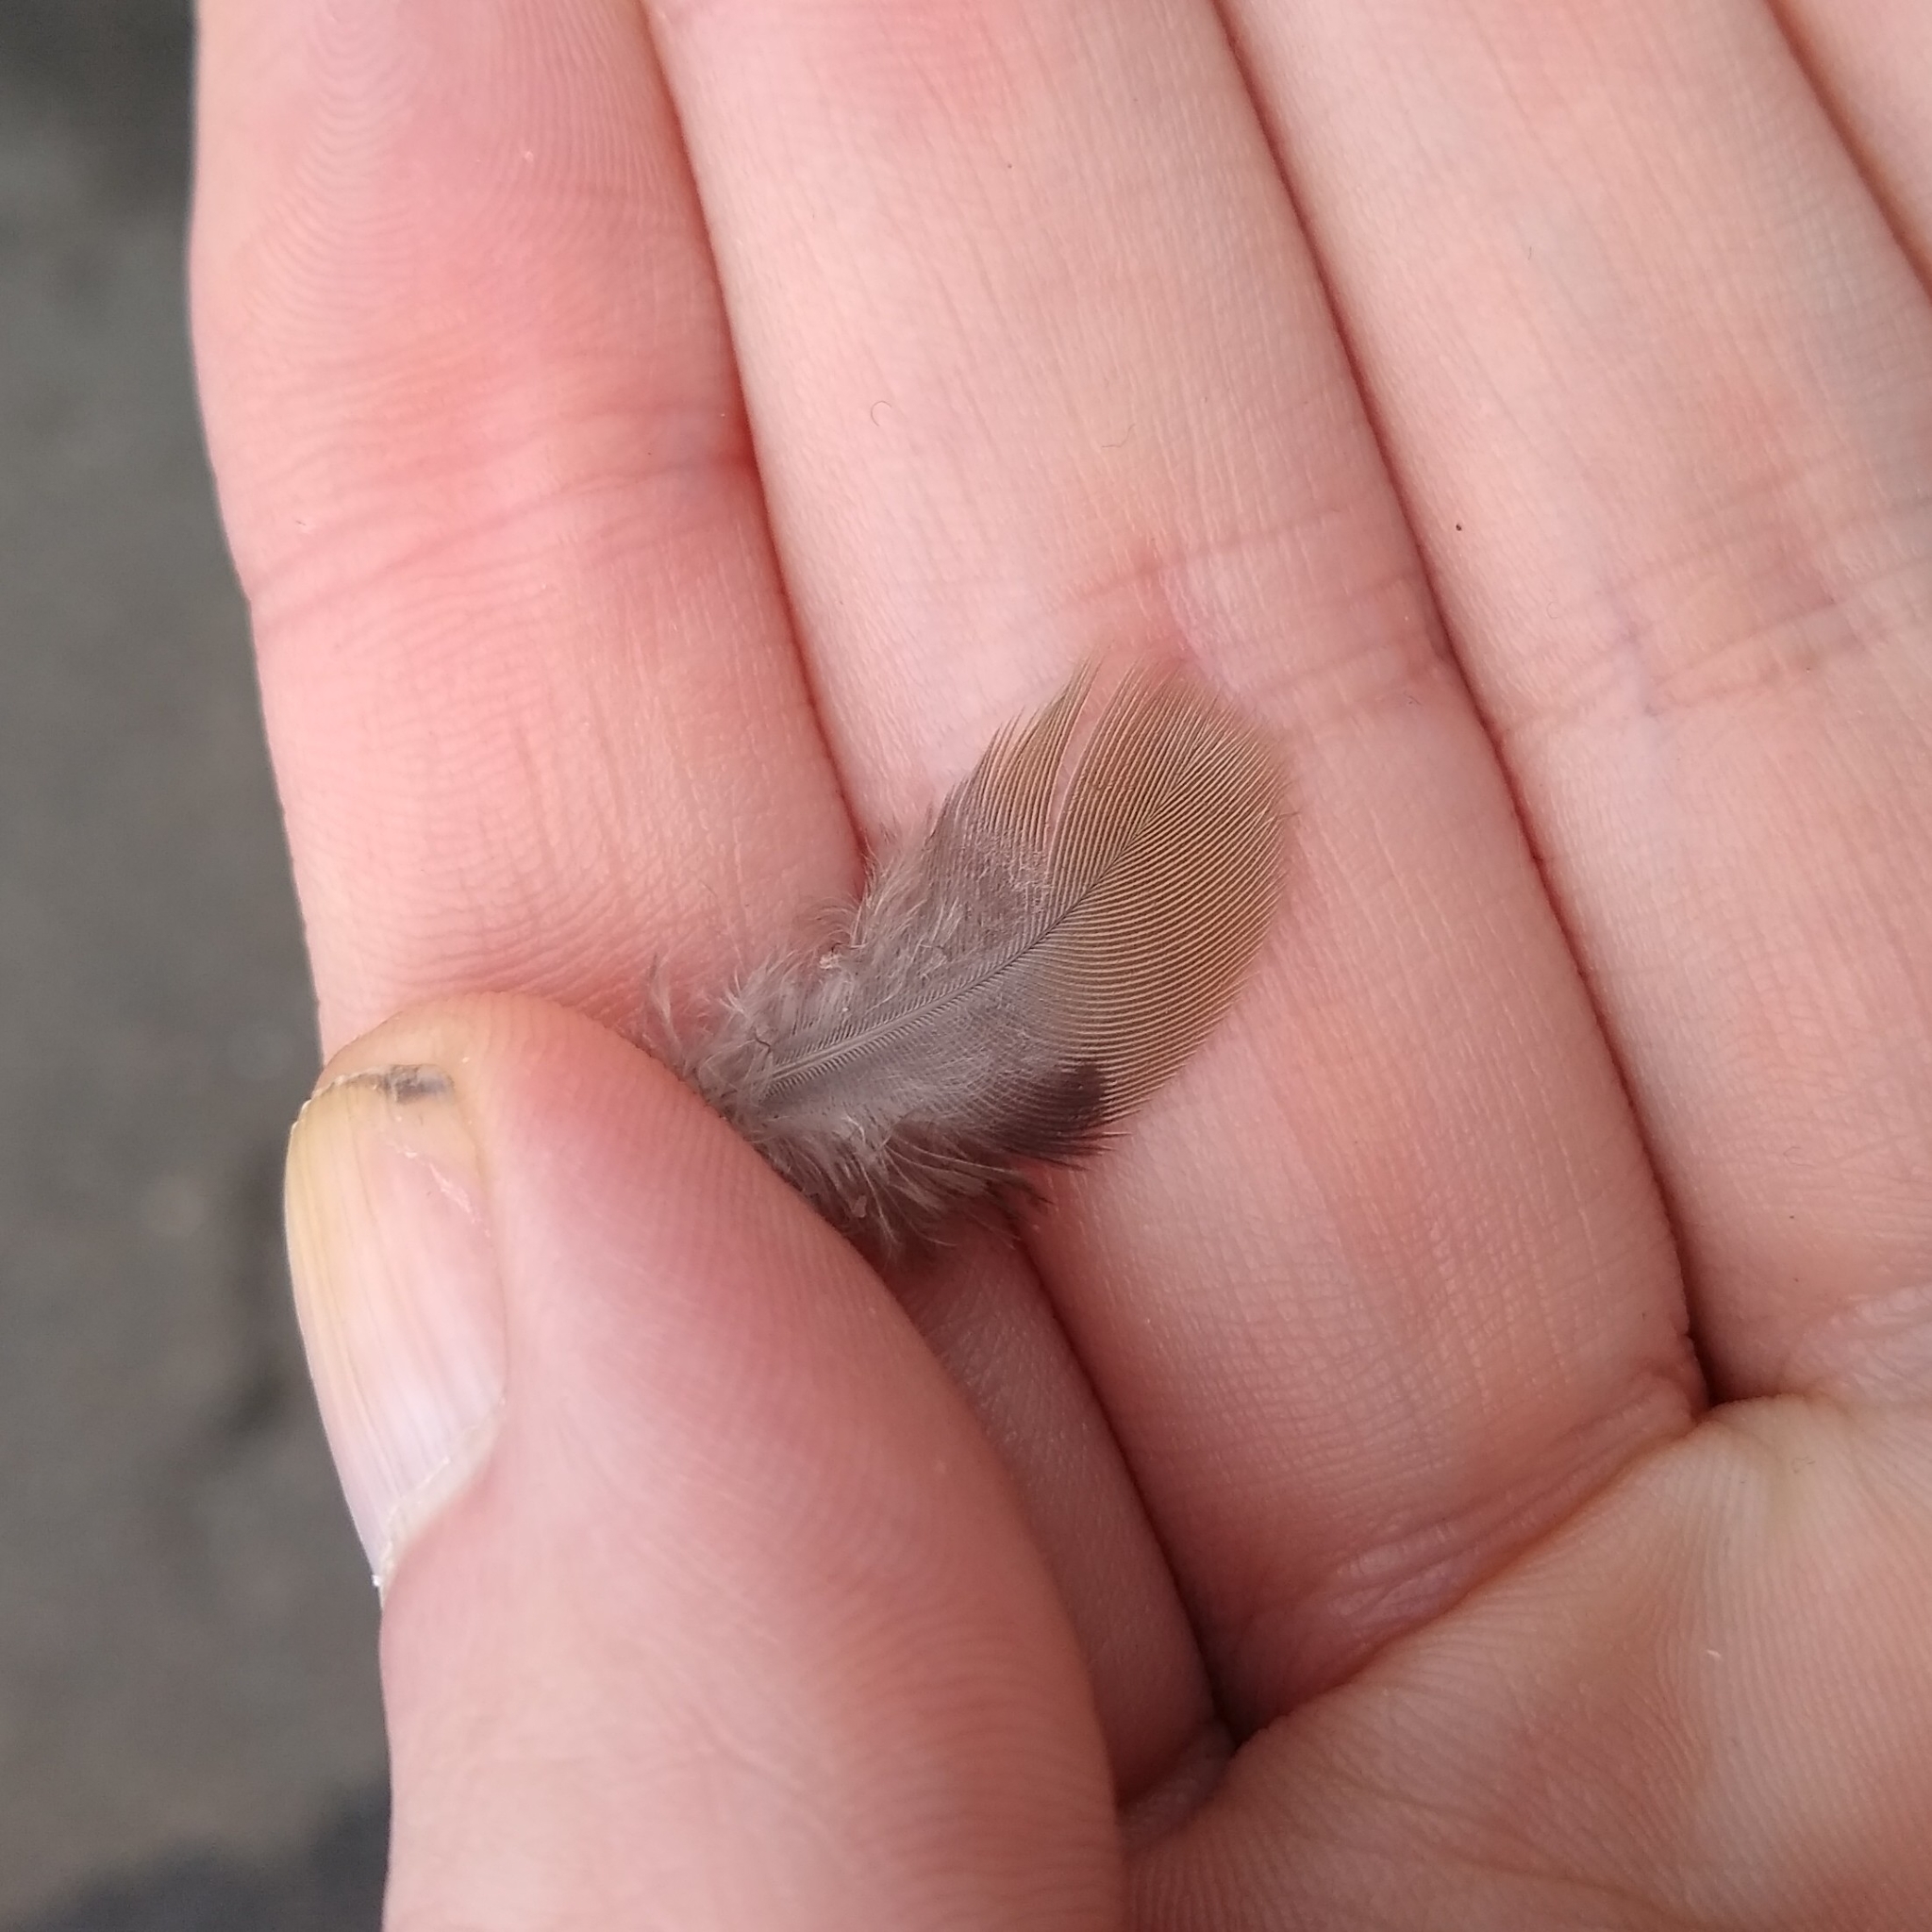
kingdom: Animalia
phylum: Chordata
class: Aves
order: Columbiformes
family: Columbidae
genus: Zenaida
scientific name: Zenaida macroura
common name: Mourning dove
